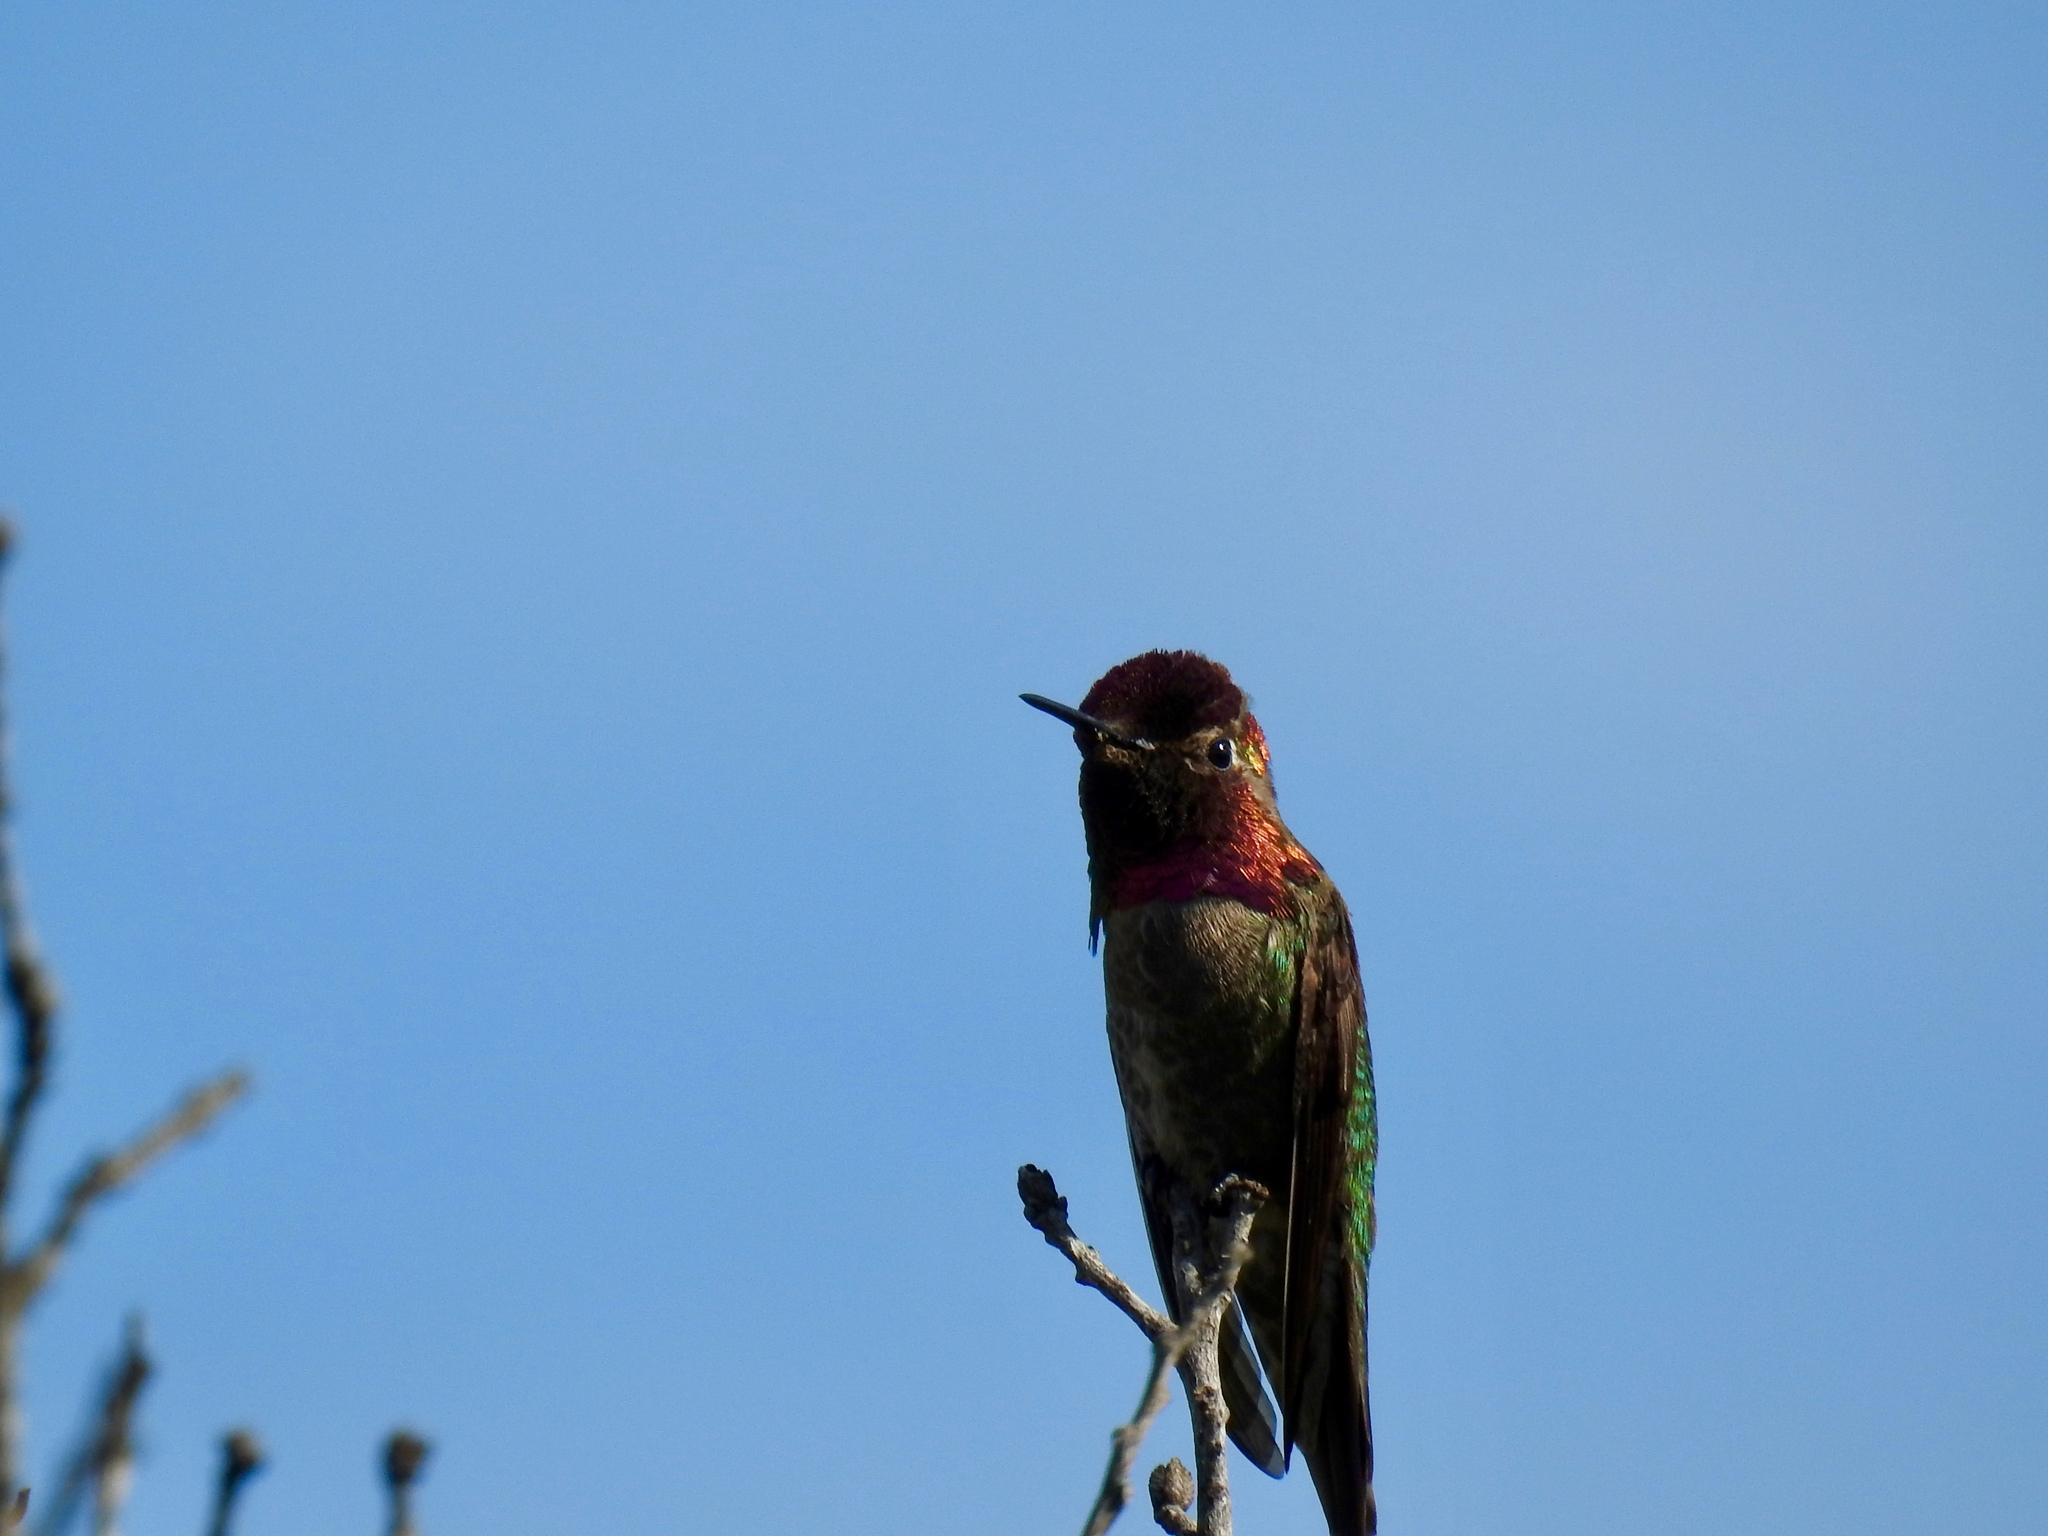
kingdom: Animalia
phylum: Chordata
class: Aves
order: Apodiformes
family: Trochilidae
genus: Calypte
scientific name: Calypte anna
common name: Anna's hummingbird
